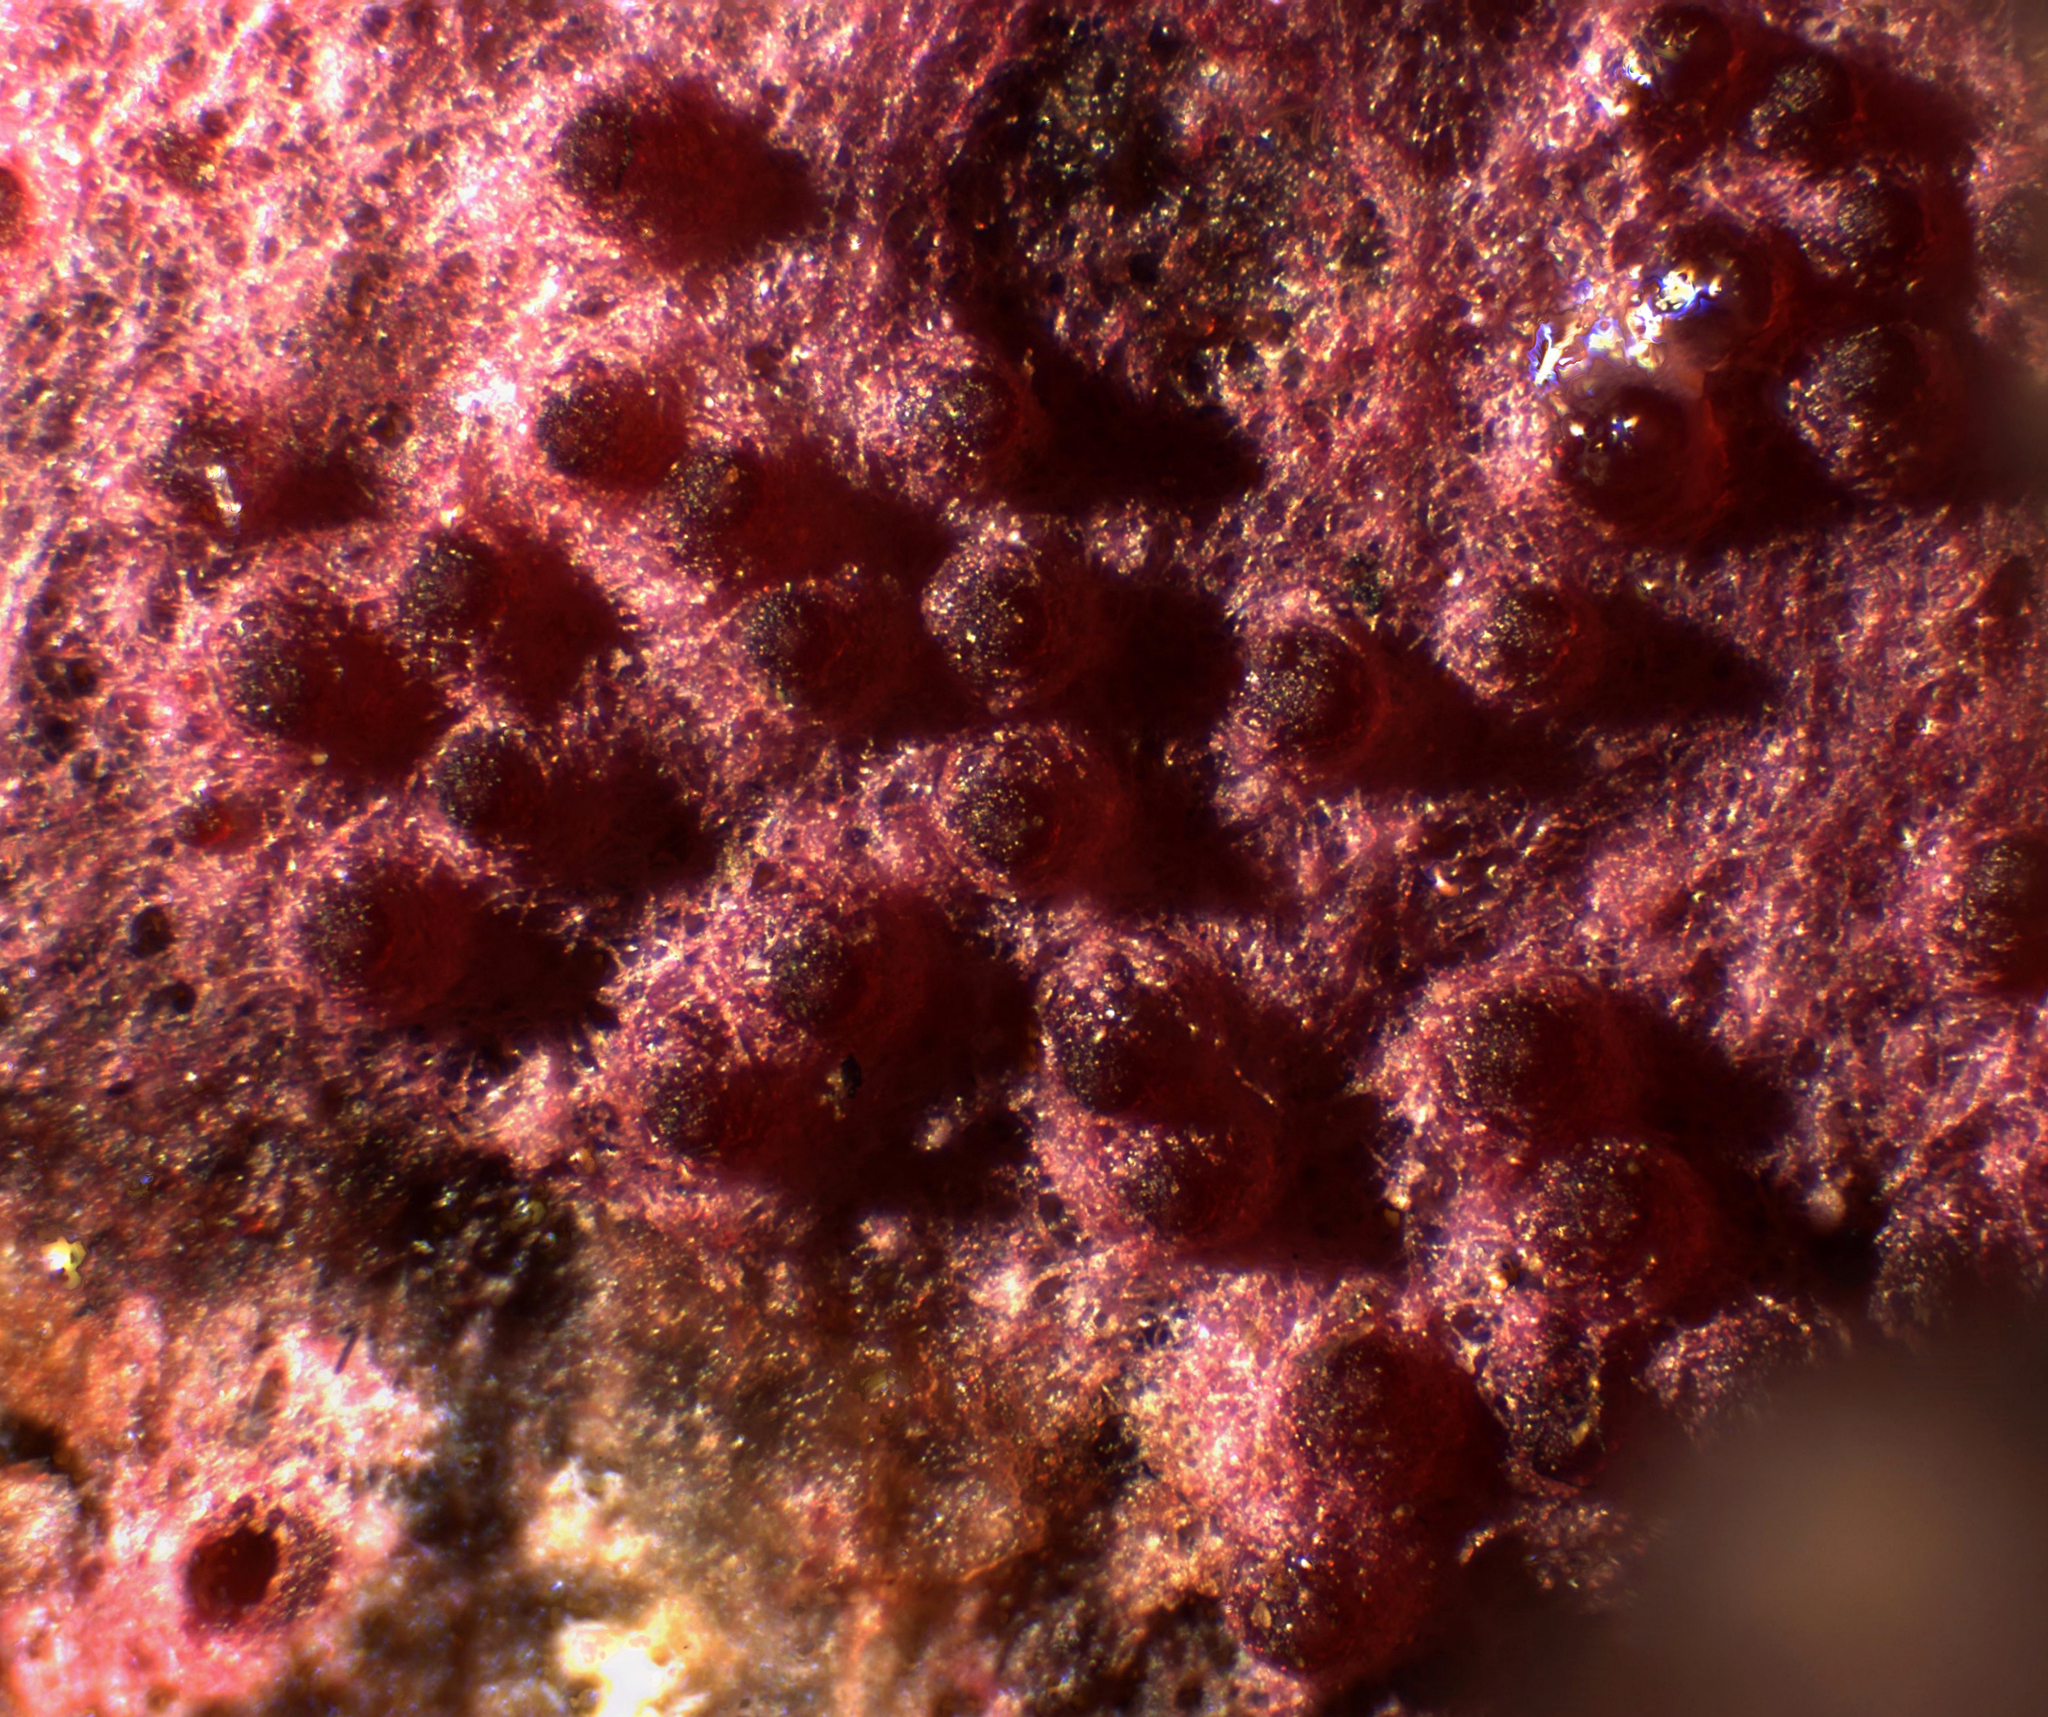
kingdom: Fungi
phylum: Ascomycota
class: Sordariomycetes
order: Hypocreales
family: Hypocreaceae
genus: Hypomyces
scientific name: Hypomyces rosellus
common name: Pink polypore mould
